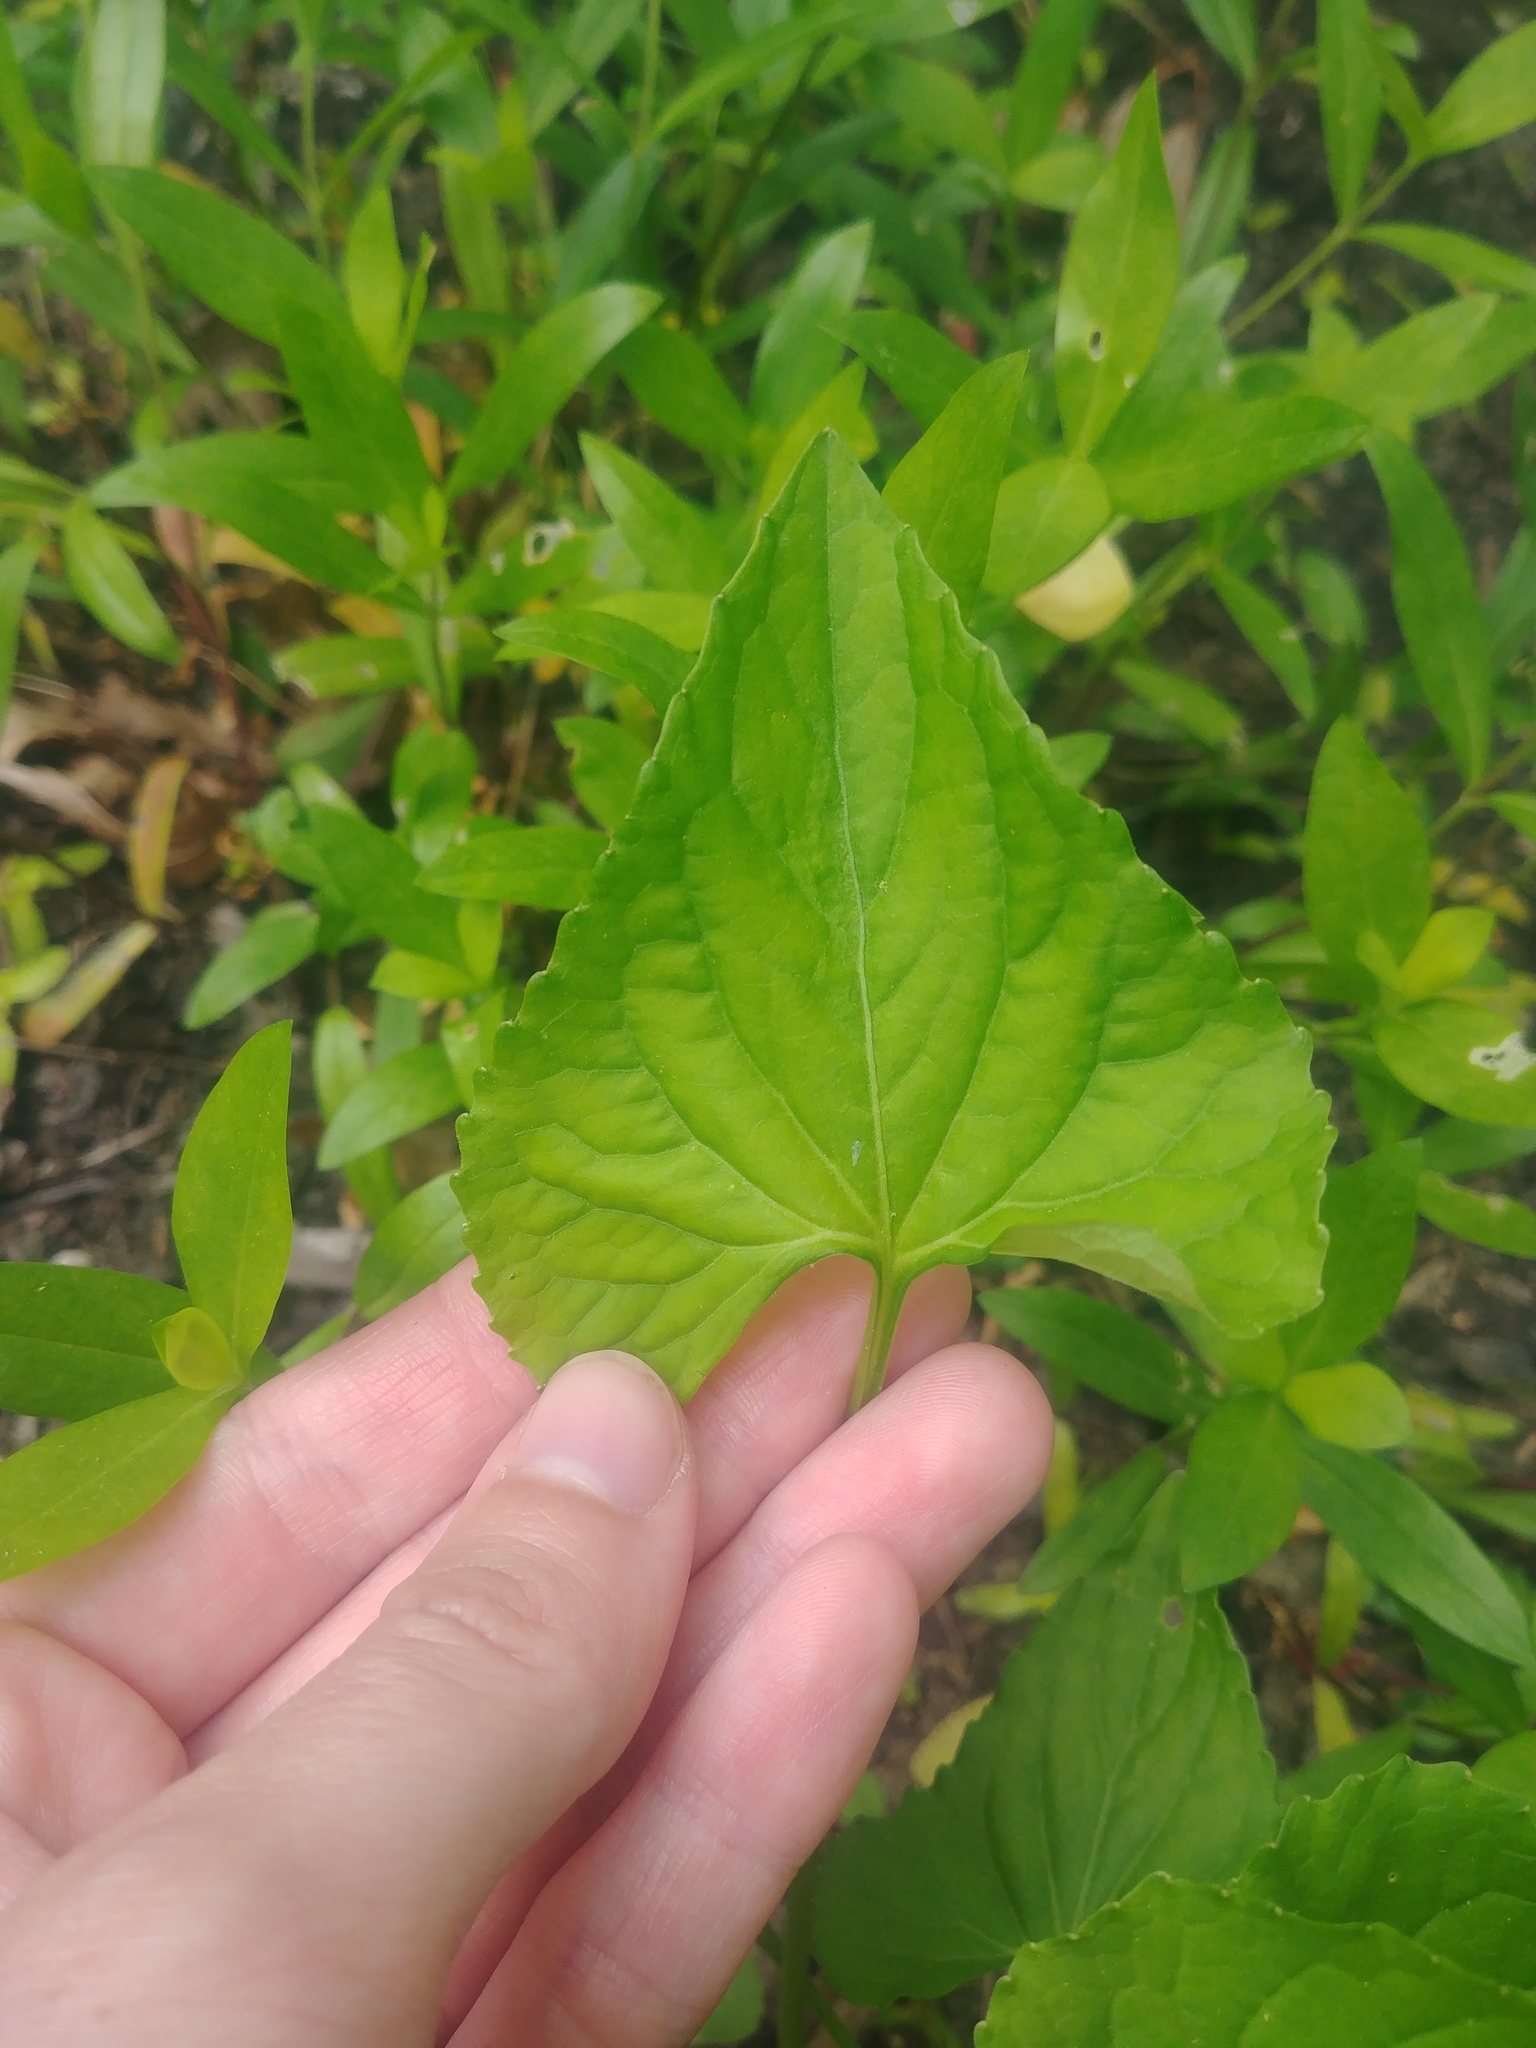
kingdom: Plantae
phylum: Tracheophyta
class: Magnoliopsida
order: Malpighiales
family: Violaceae
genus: Viola
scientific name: Viola missouriensis
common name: Missouri violet
